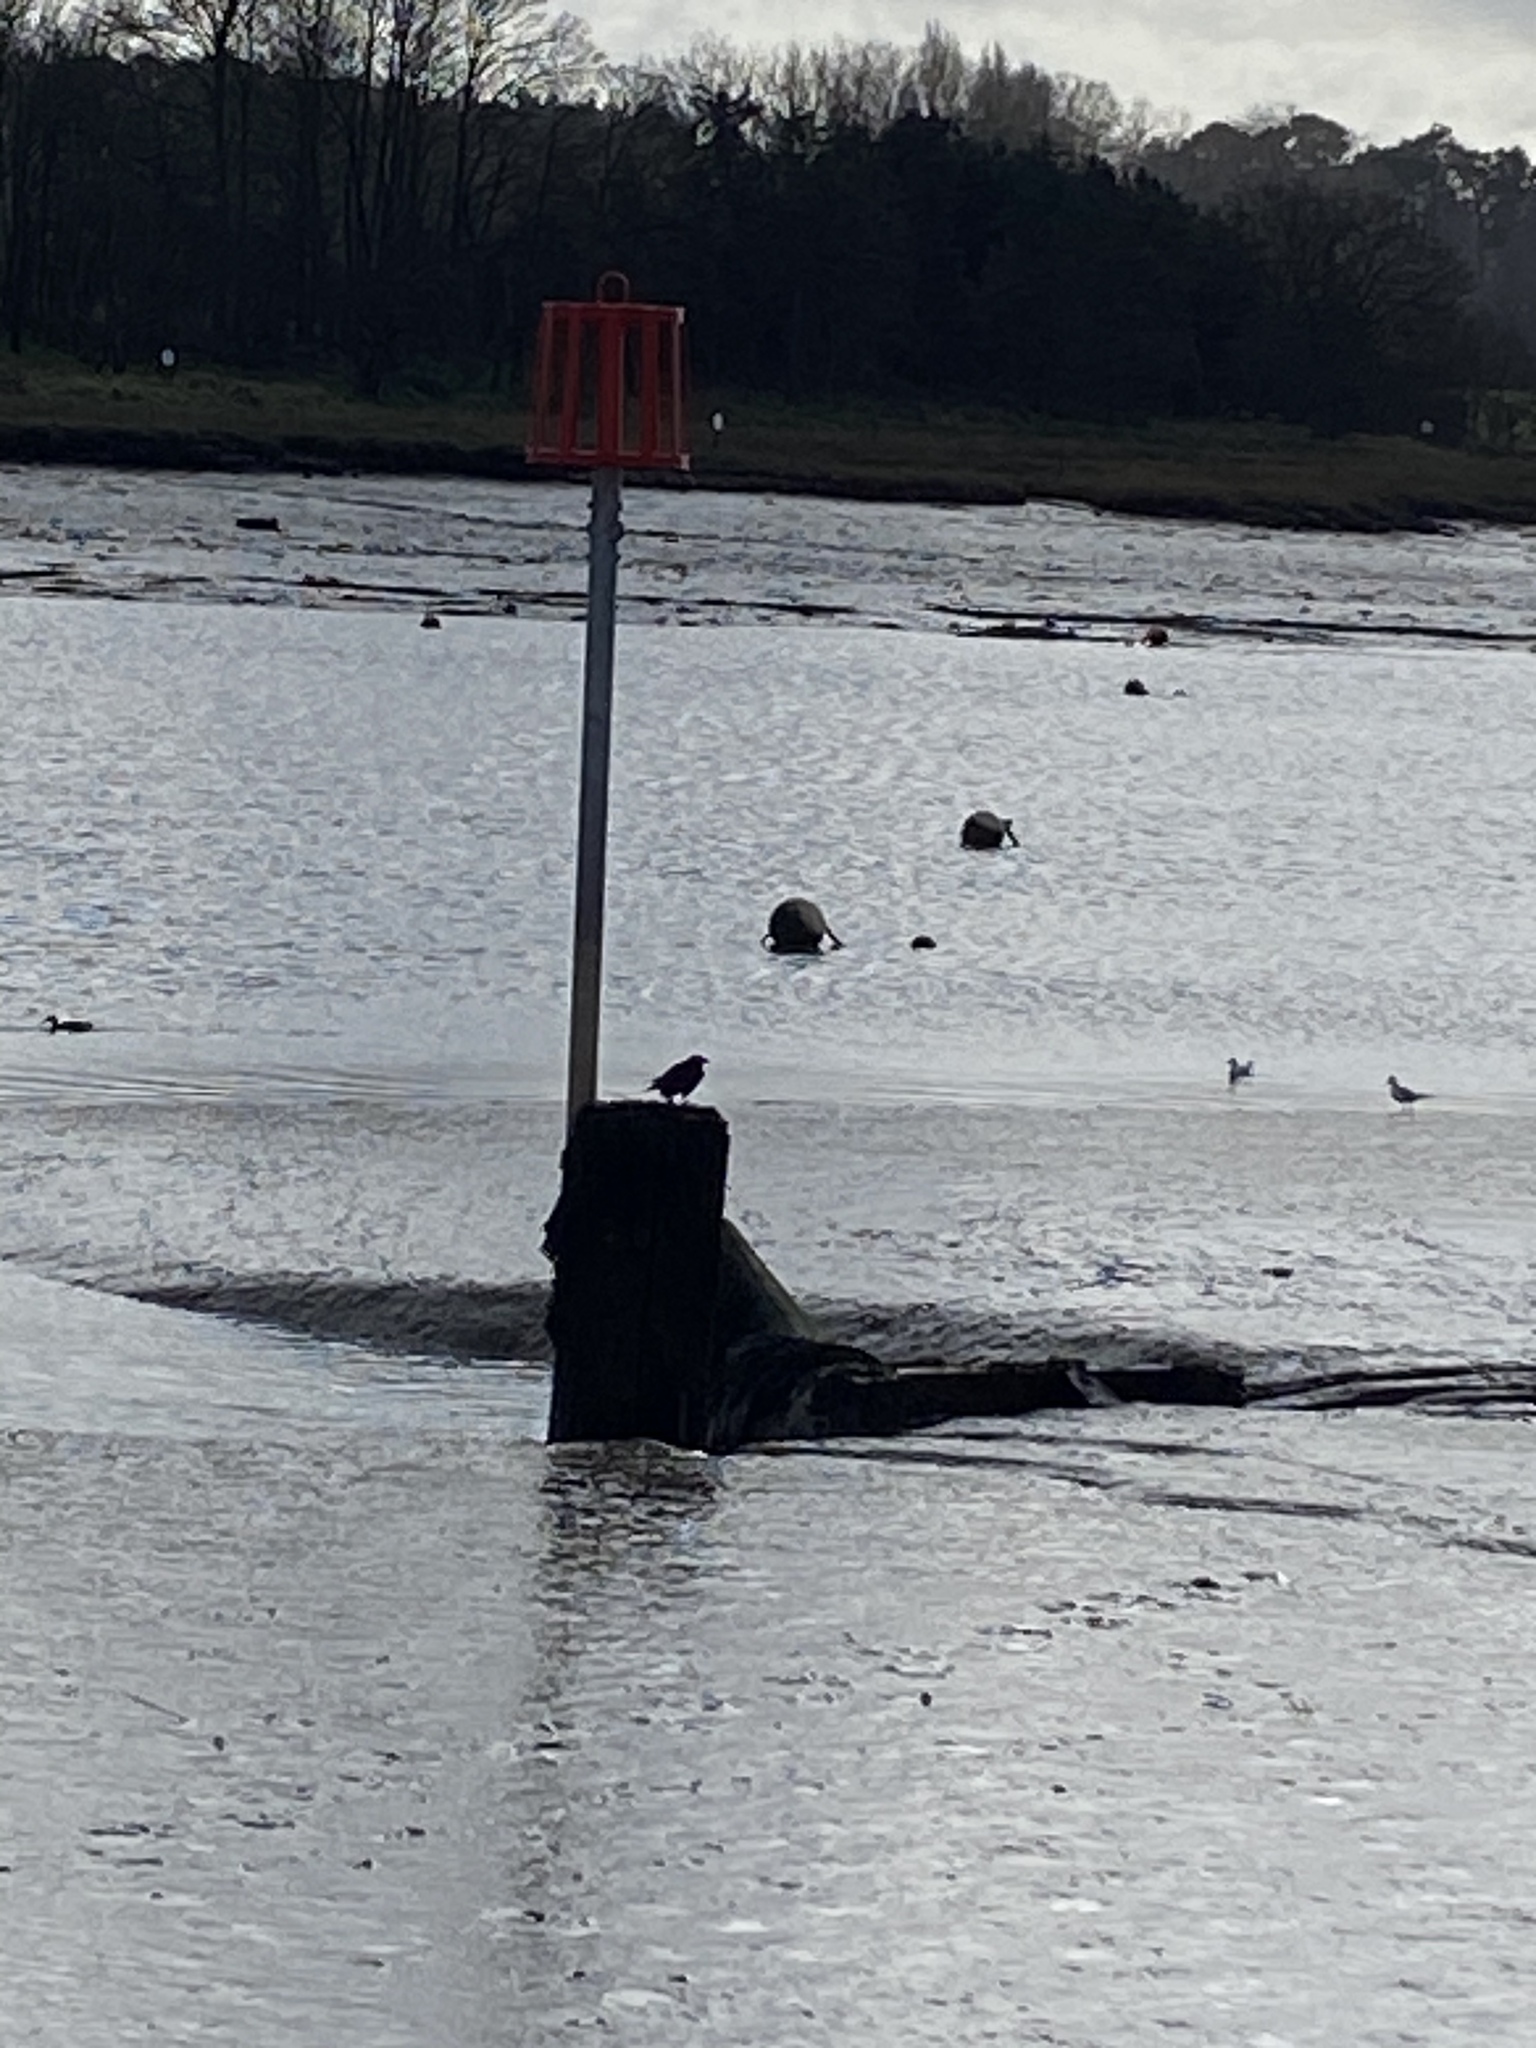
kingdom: Animalia
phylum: Chordata
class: Aves
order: Passeriformes
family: Corvidae
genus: Corvus
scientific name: Corvus corone
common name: Carrion crow
